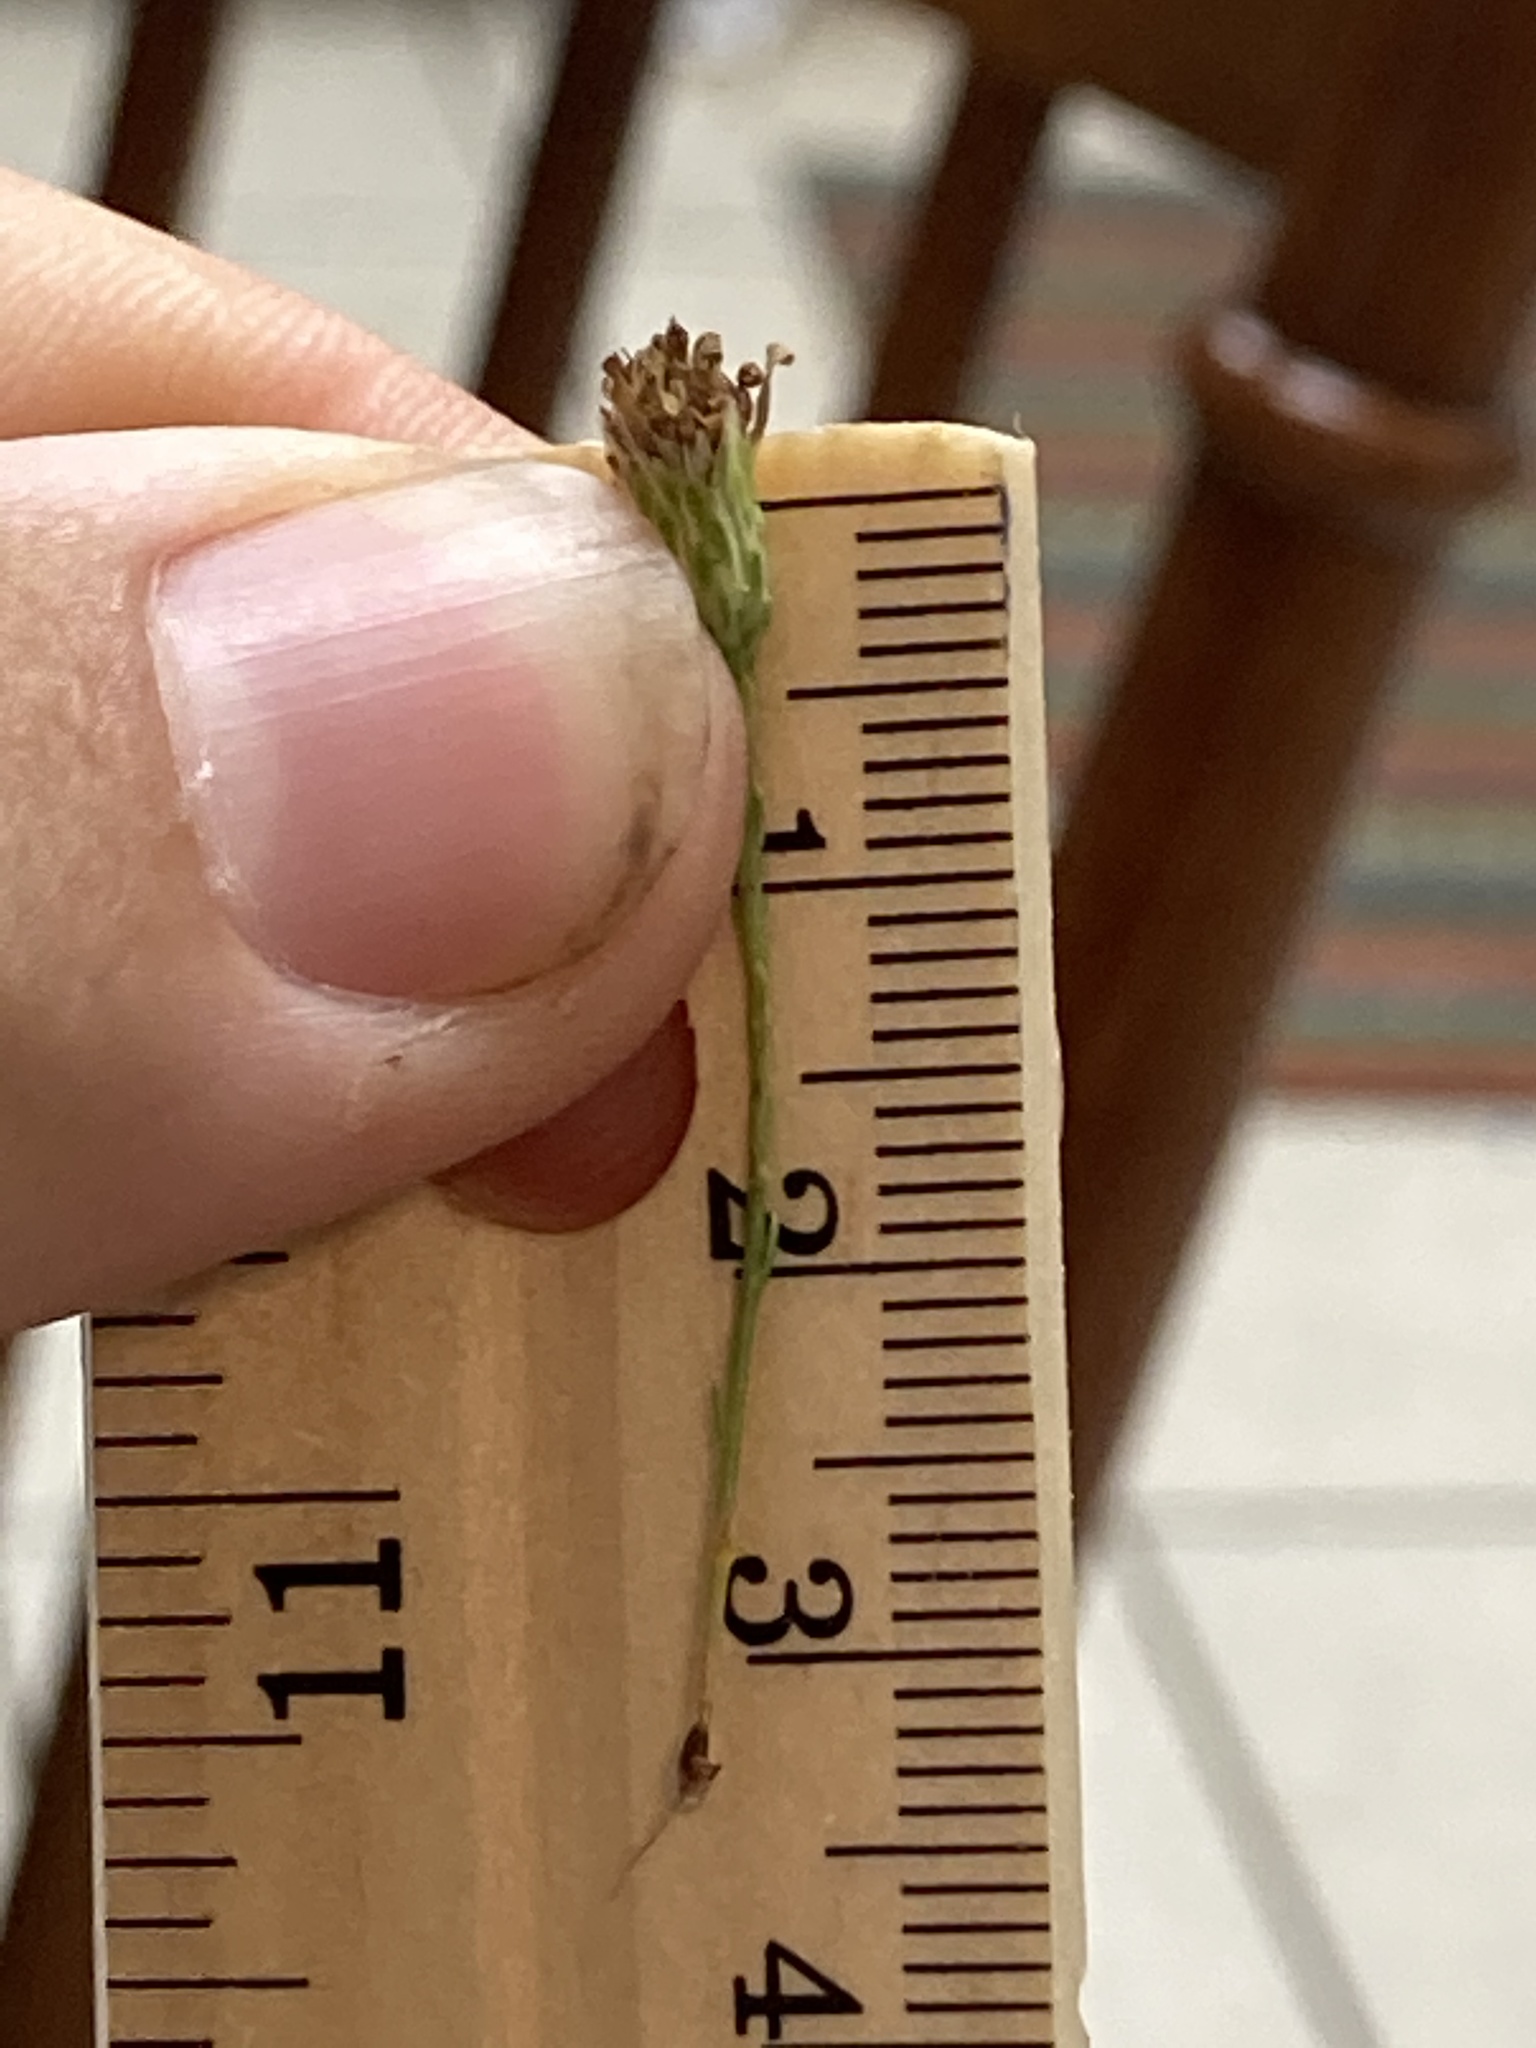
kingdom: Plantae
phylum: Tracheophyta
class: Magnoliopsida
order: Asterales
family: Asteraceae
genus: Symphyotrichum
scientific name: Symphyotrichum dumosum
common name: Bushy aster
